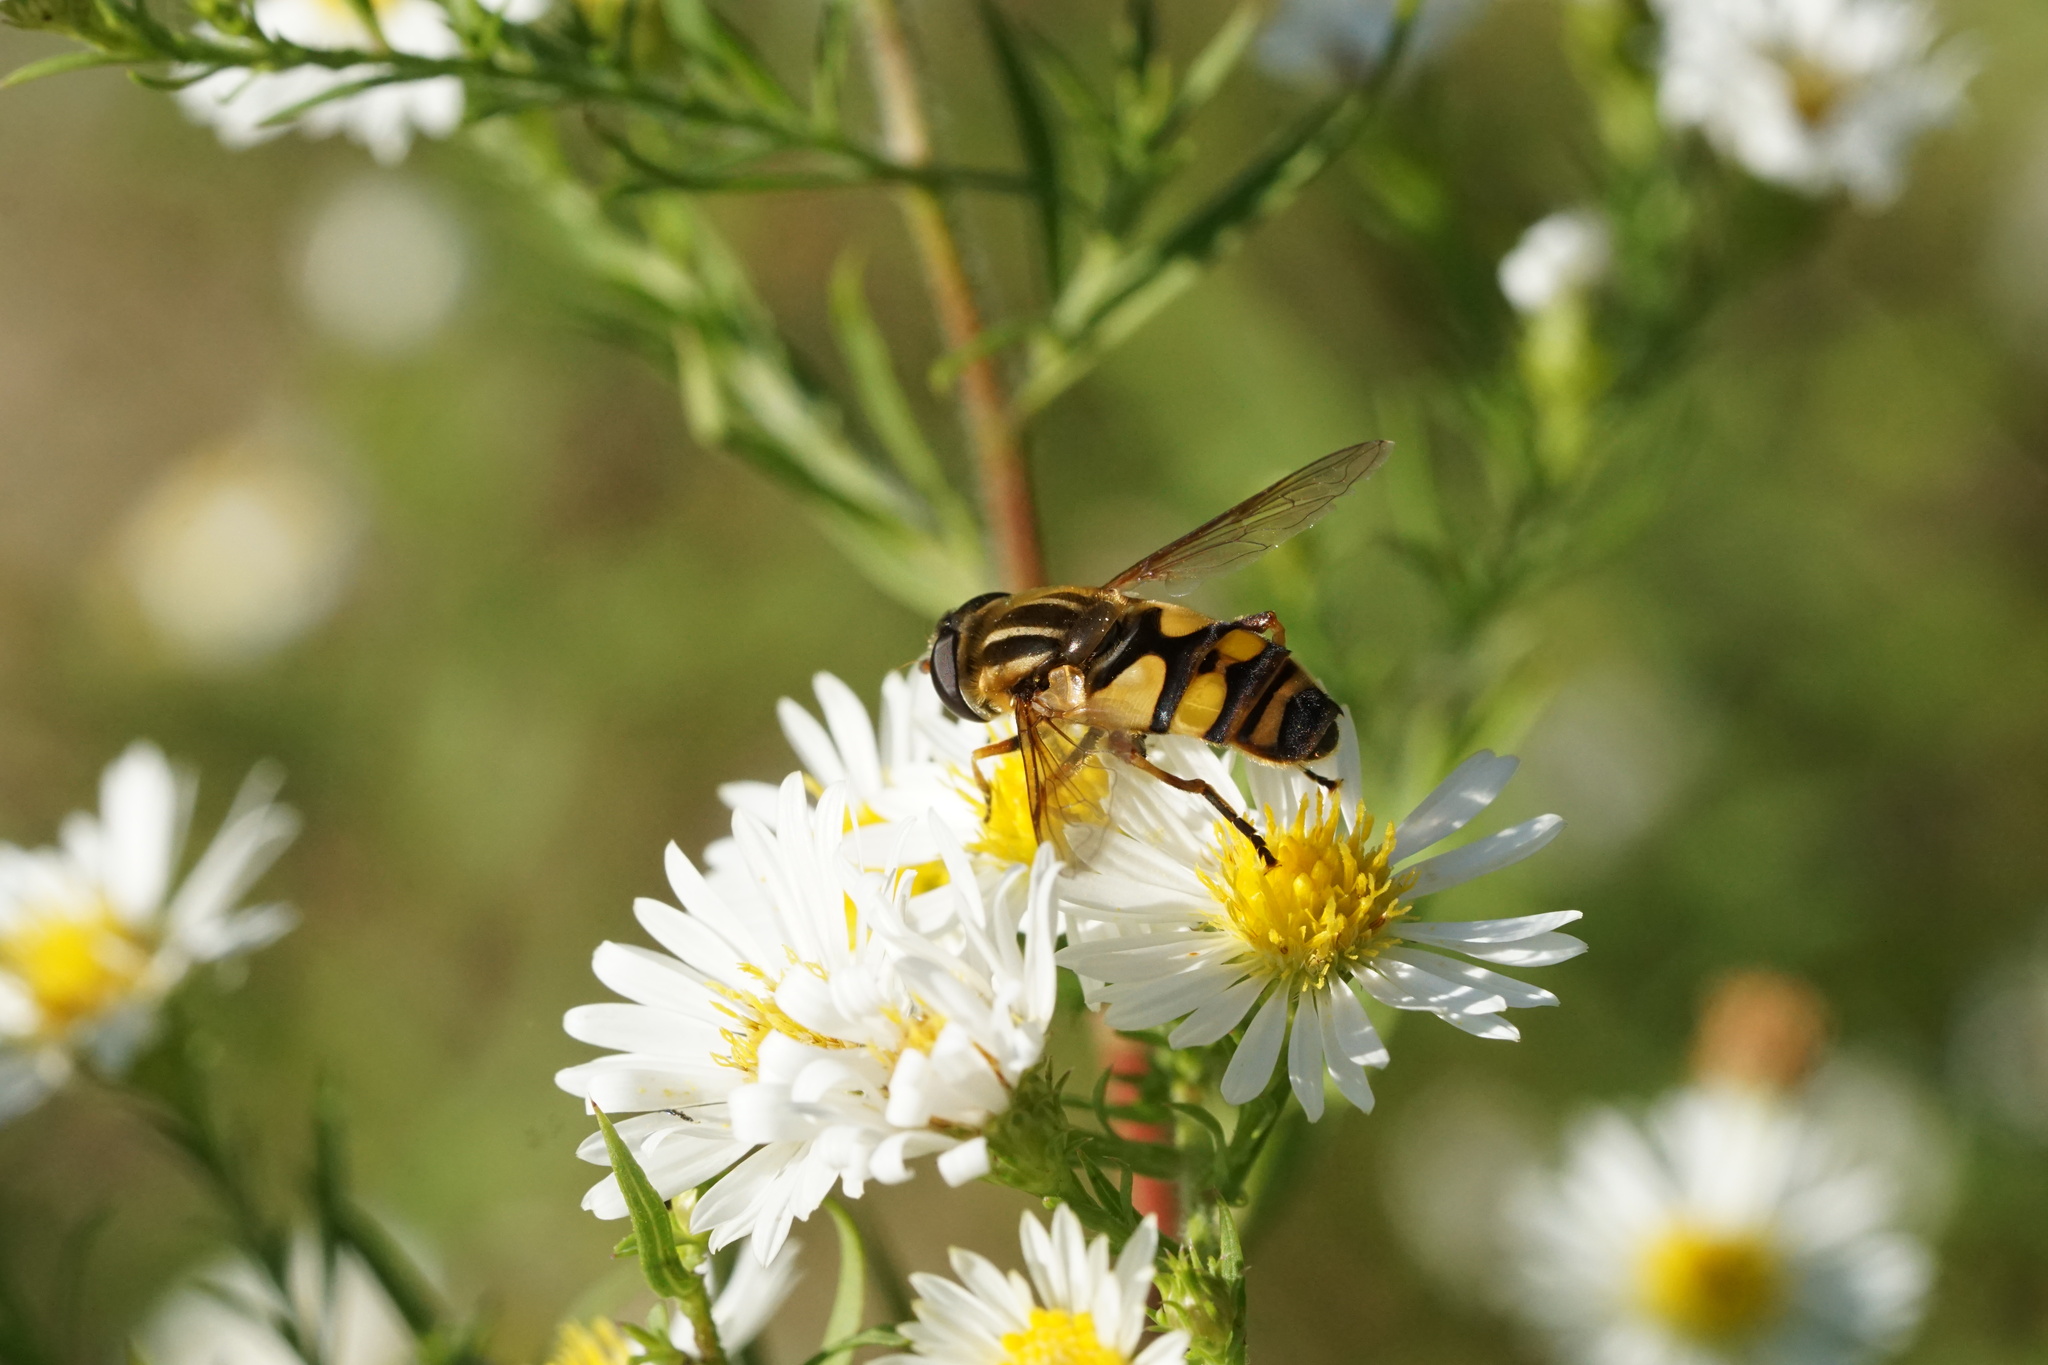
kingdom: Animalia
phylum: Arthropoda
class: Insecta
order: Diptera
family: Syrphidae
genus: Helophilus
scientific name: Helophilus fasciatus
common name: Narrow-headed marsh fly
